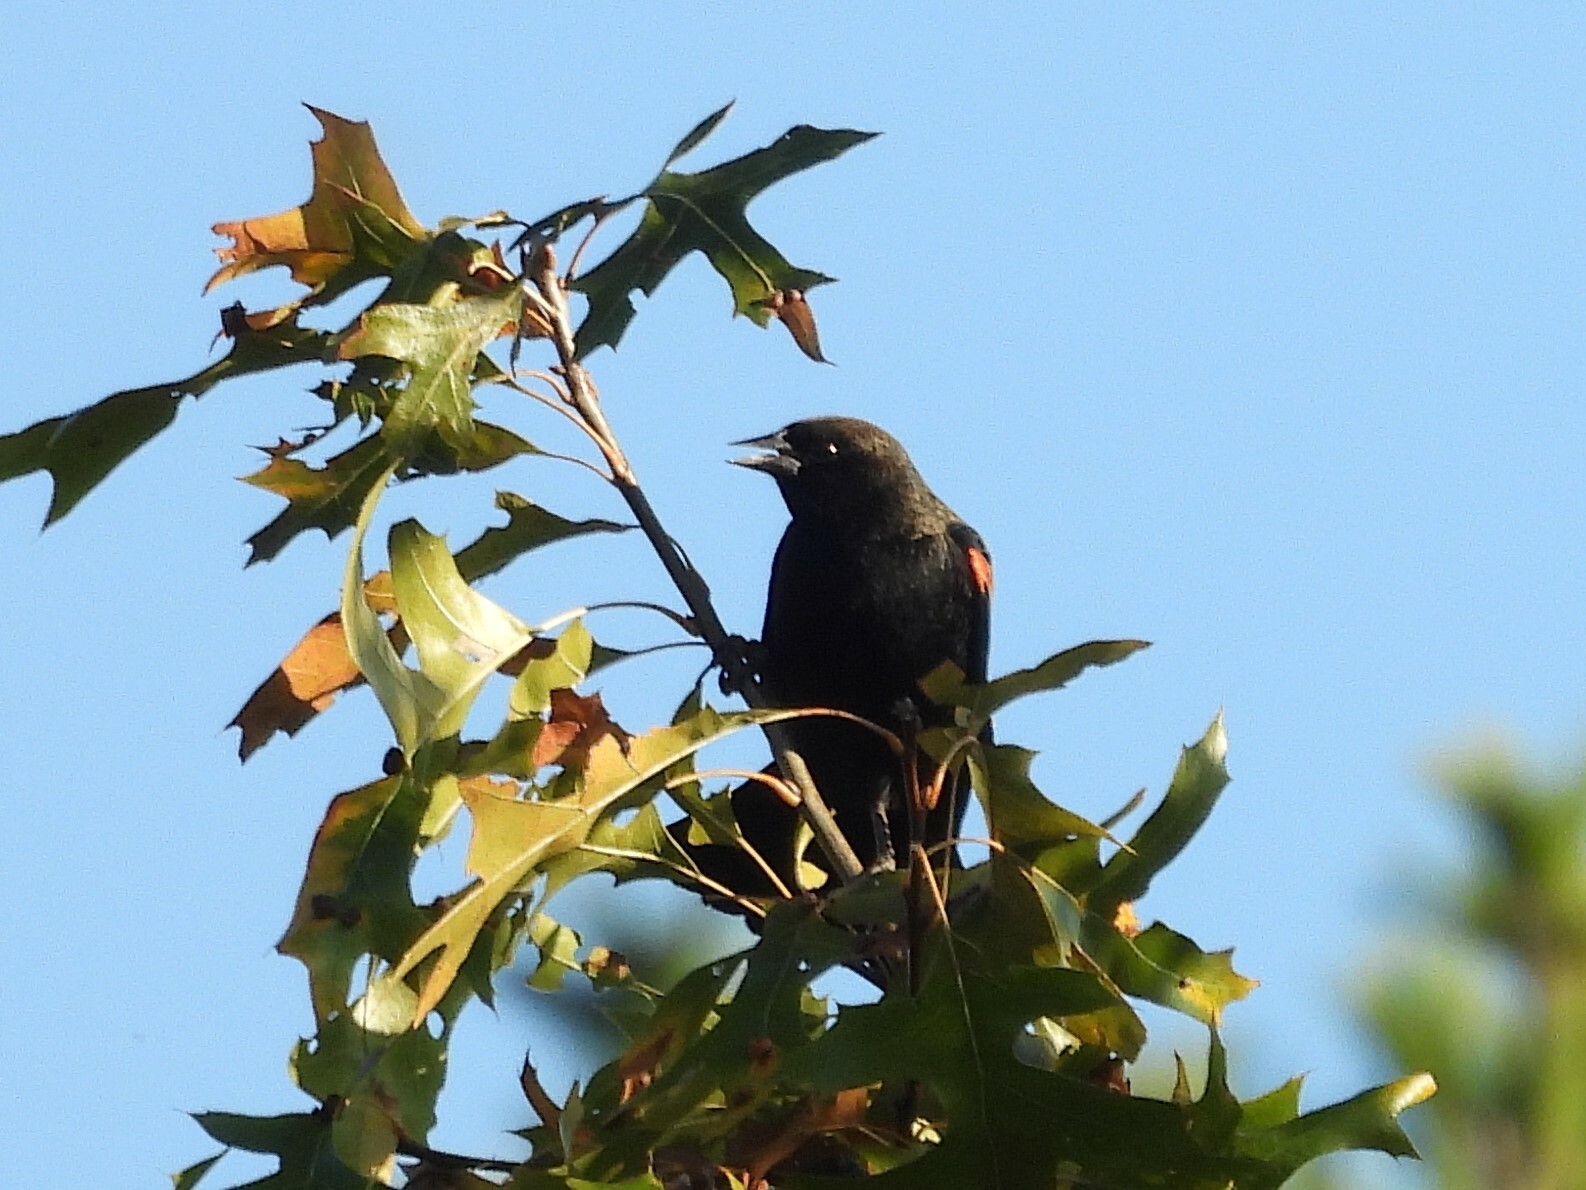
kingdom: Animalia
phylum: Chordata
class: Aves
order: Passeriformes
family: Icteridae
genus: Agelaius
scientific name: Agelaius phoeniceus
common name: Red-winged blackbird
